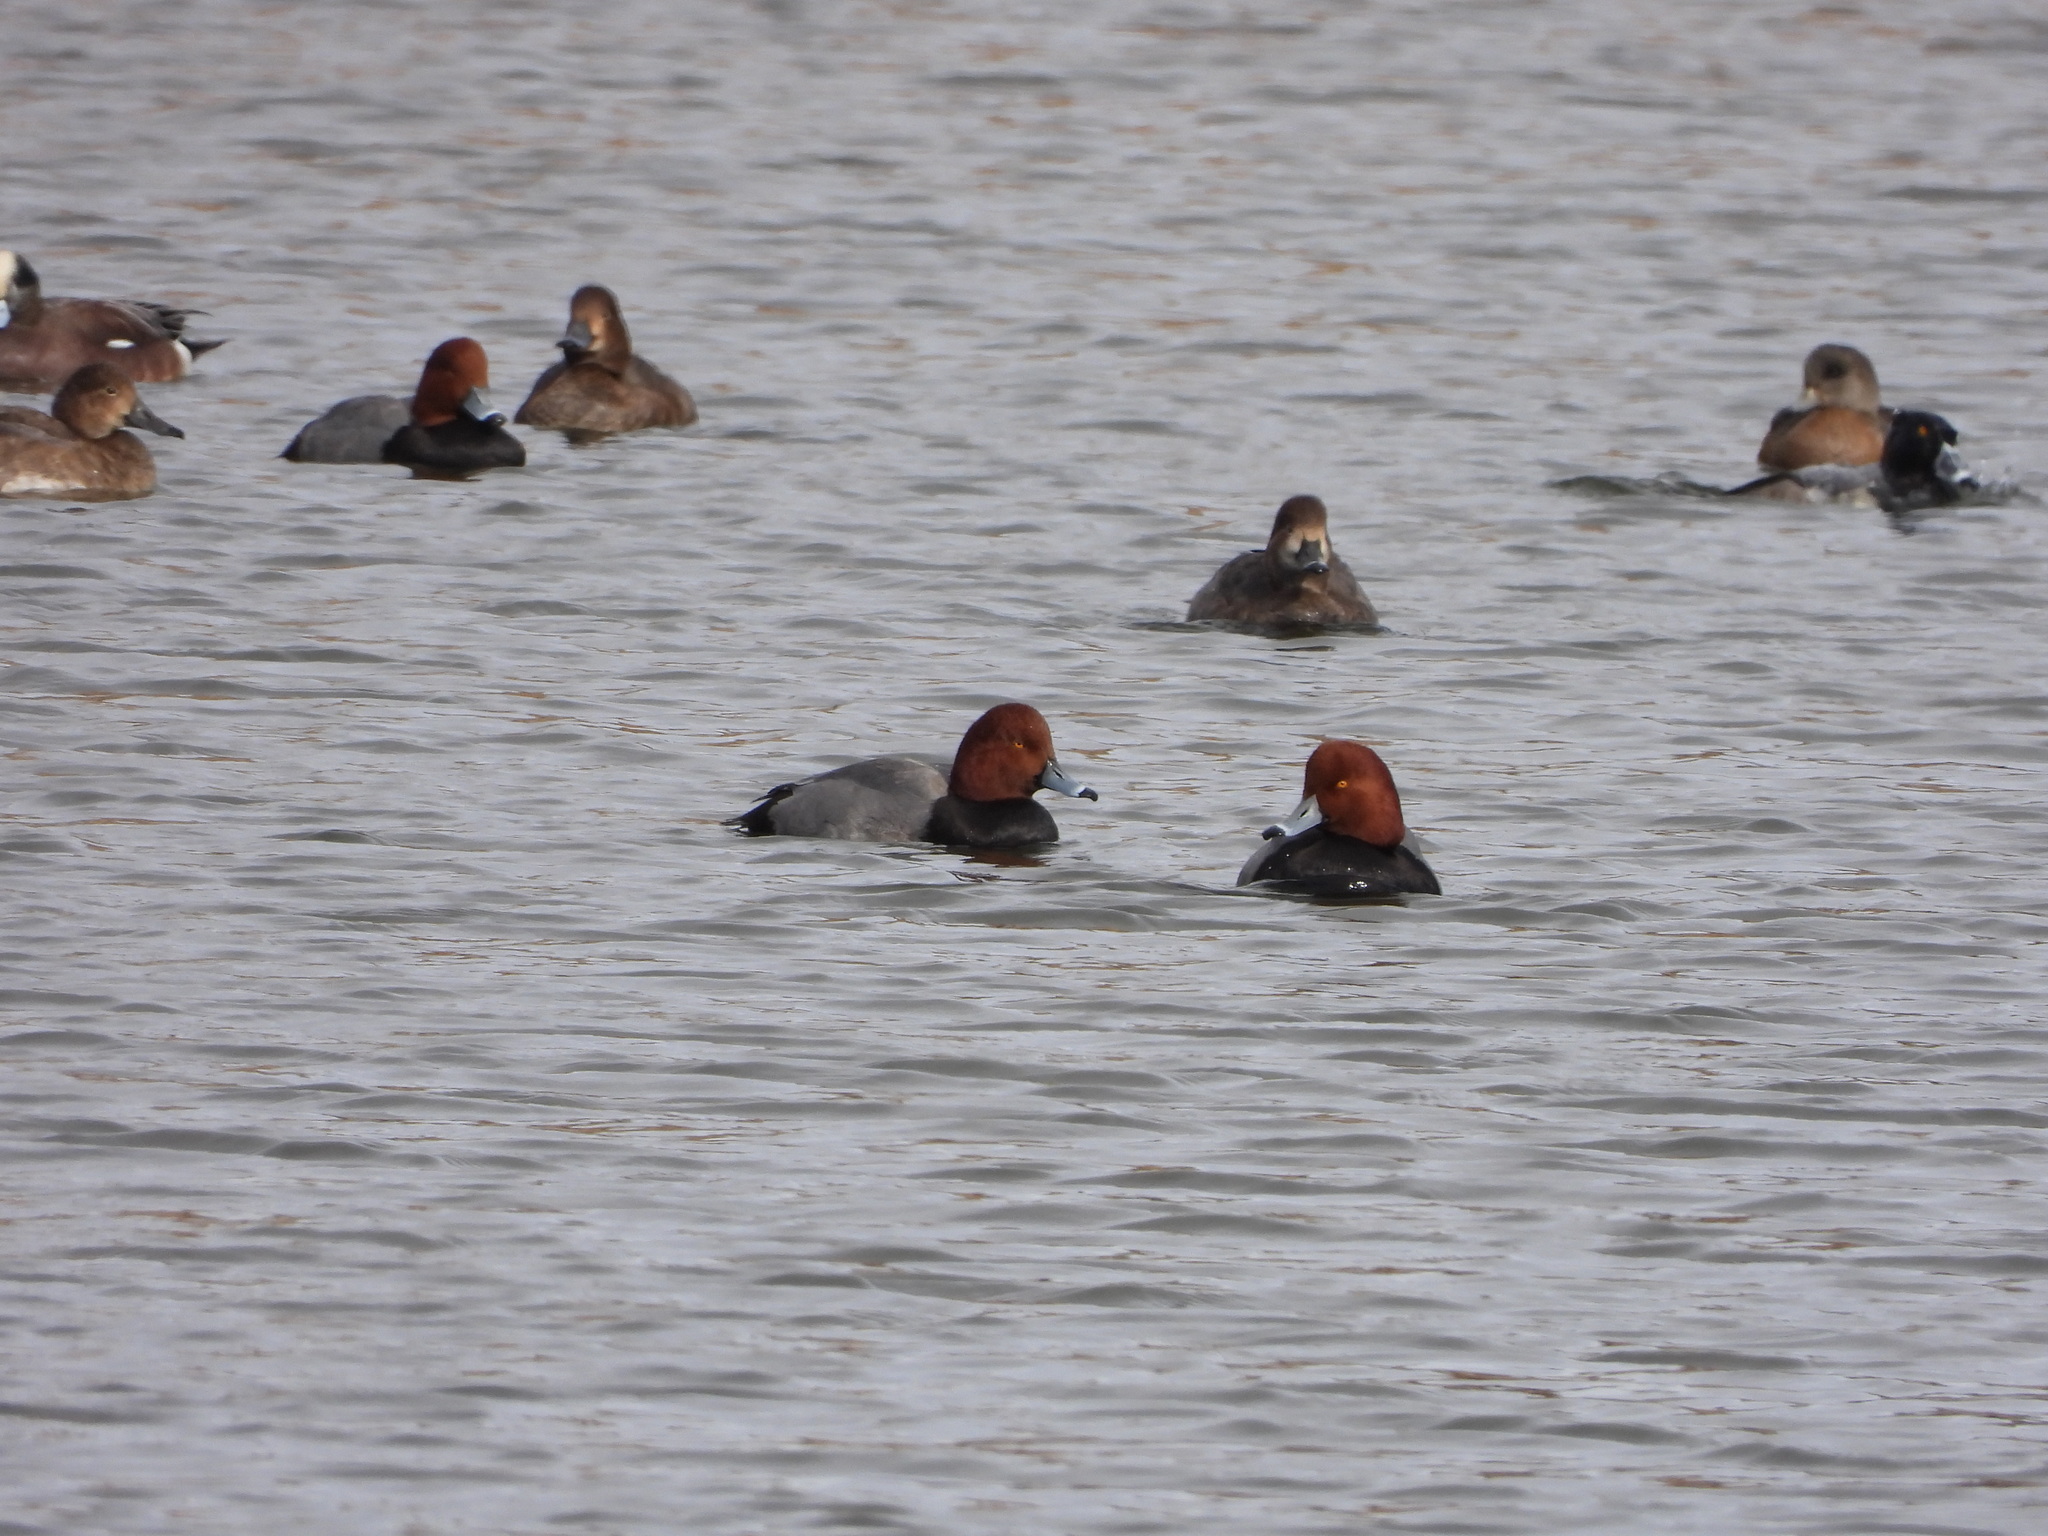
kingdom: Animalia
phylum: Chordata
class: Aves
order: Anseriformes
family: Anatidae
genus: Aythya
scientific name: Aythya americana
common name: Redhead
